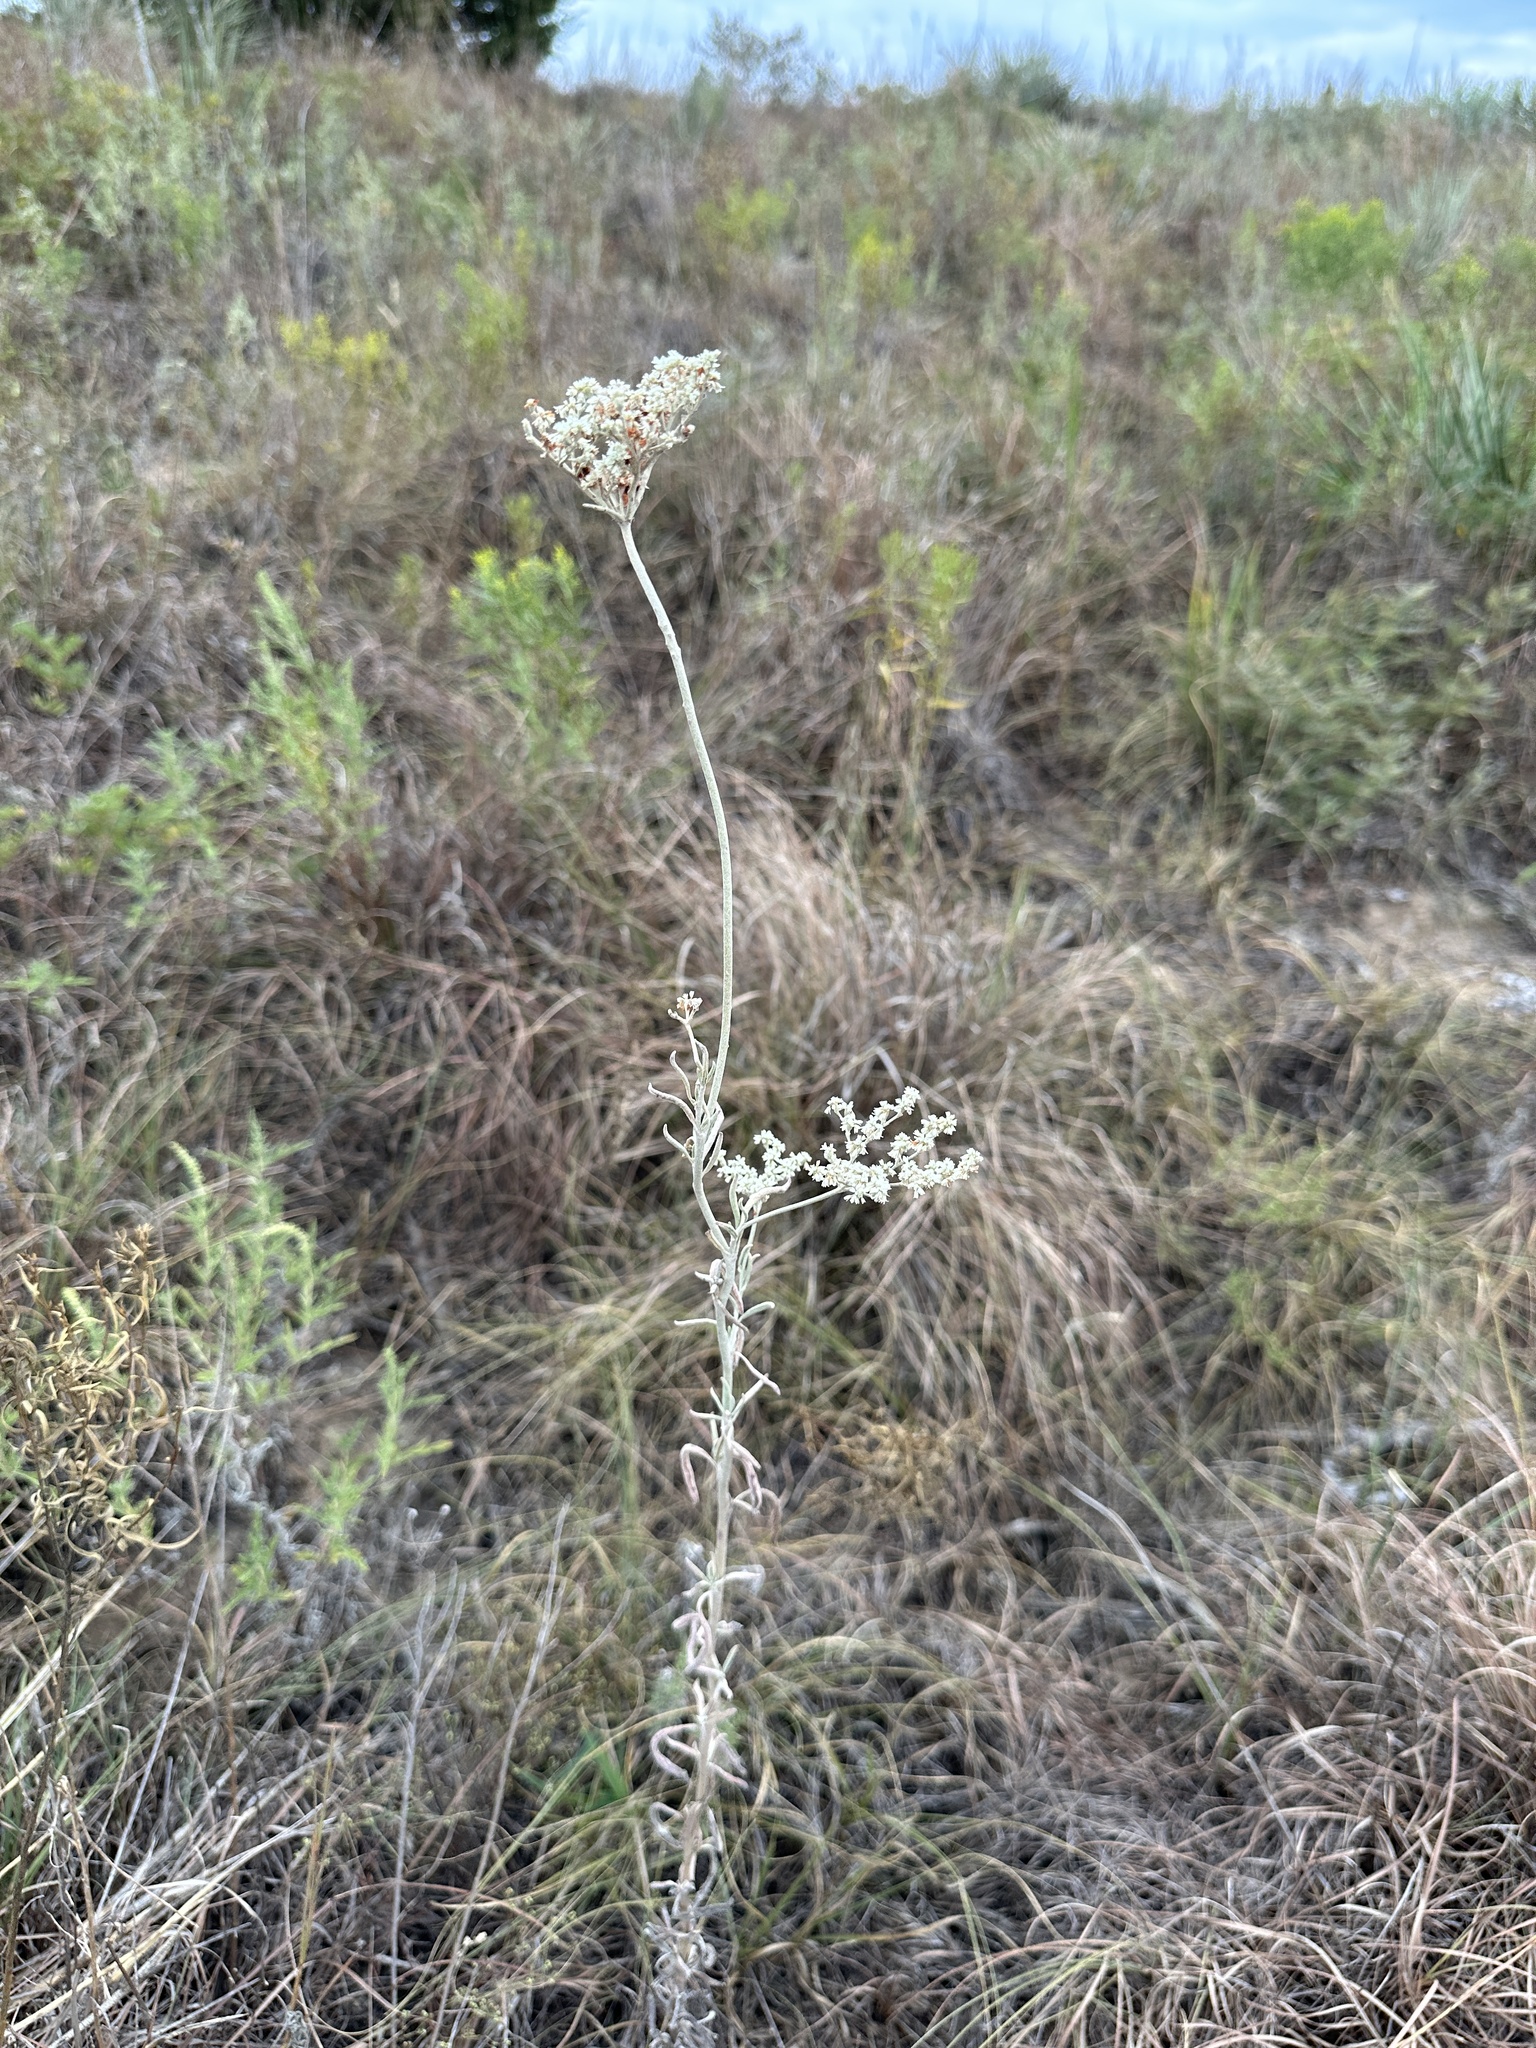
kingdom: Plantae
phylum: Tracheophyta
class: Magnoliopsida
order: Caryophyllales
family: Polygonaceae
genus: Eriogonum
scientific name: Eriogonum annuum
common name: Annual wild buckwheat
